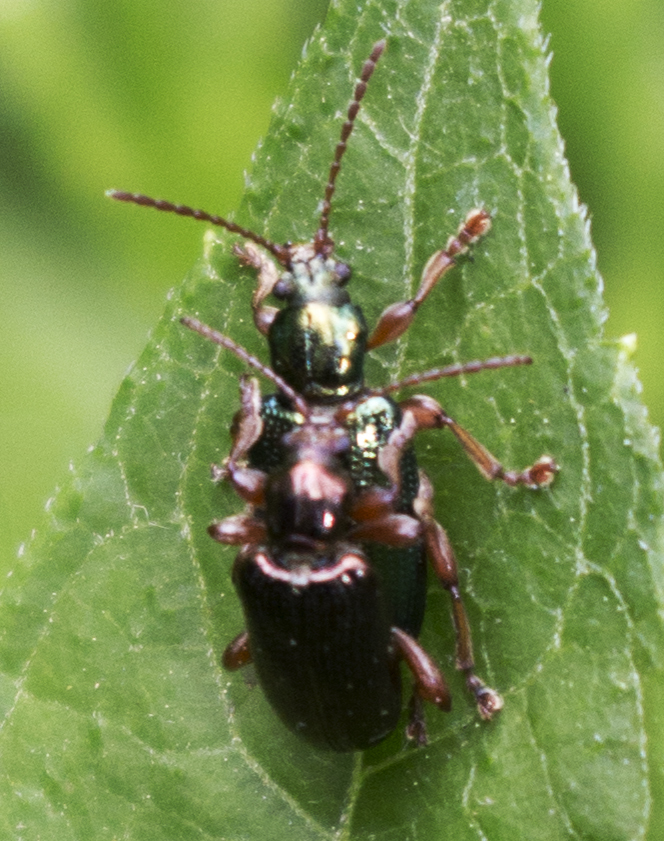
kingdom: Animalia
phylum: Arthropoda
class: Insecta
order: Coleoptera
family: Chrysomelidae
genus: Plateumaris
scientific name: Plateumaris rufa
